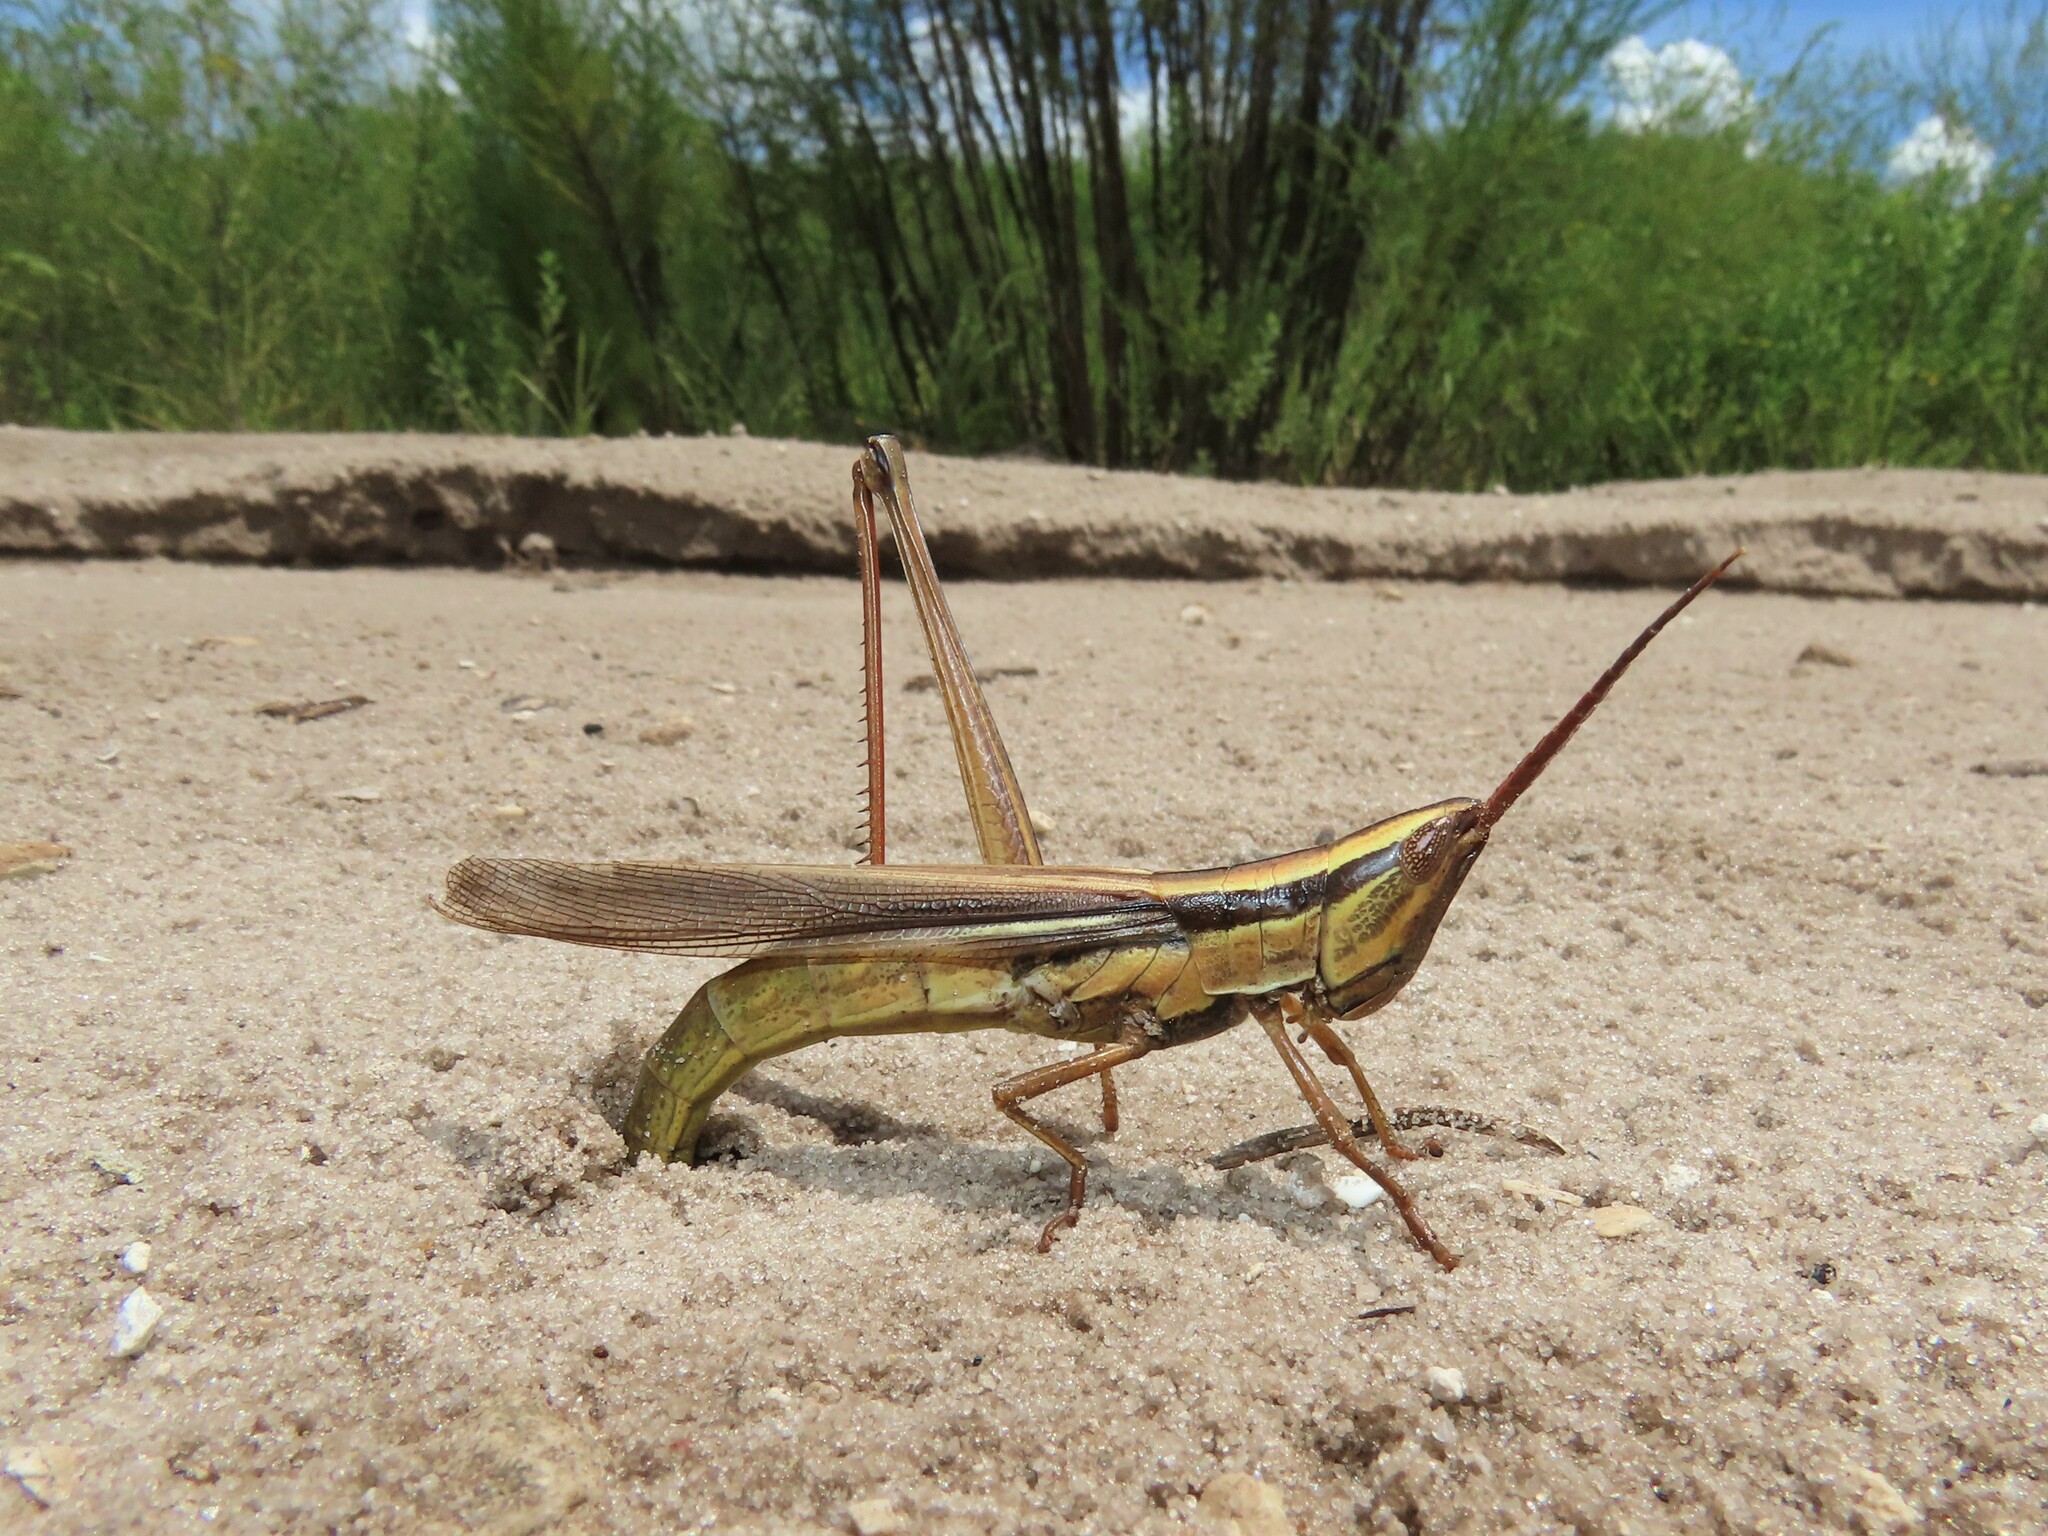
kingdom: Animalia
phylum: Arthropoda
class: Insecta
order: Orthoptera
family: Acrididae
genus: Mermiria
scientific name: Mermiria intertexta
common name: Eastern mermiria grasshopper
